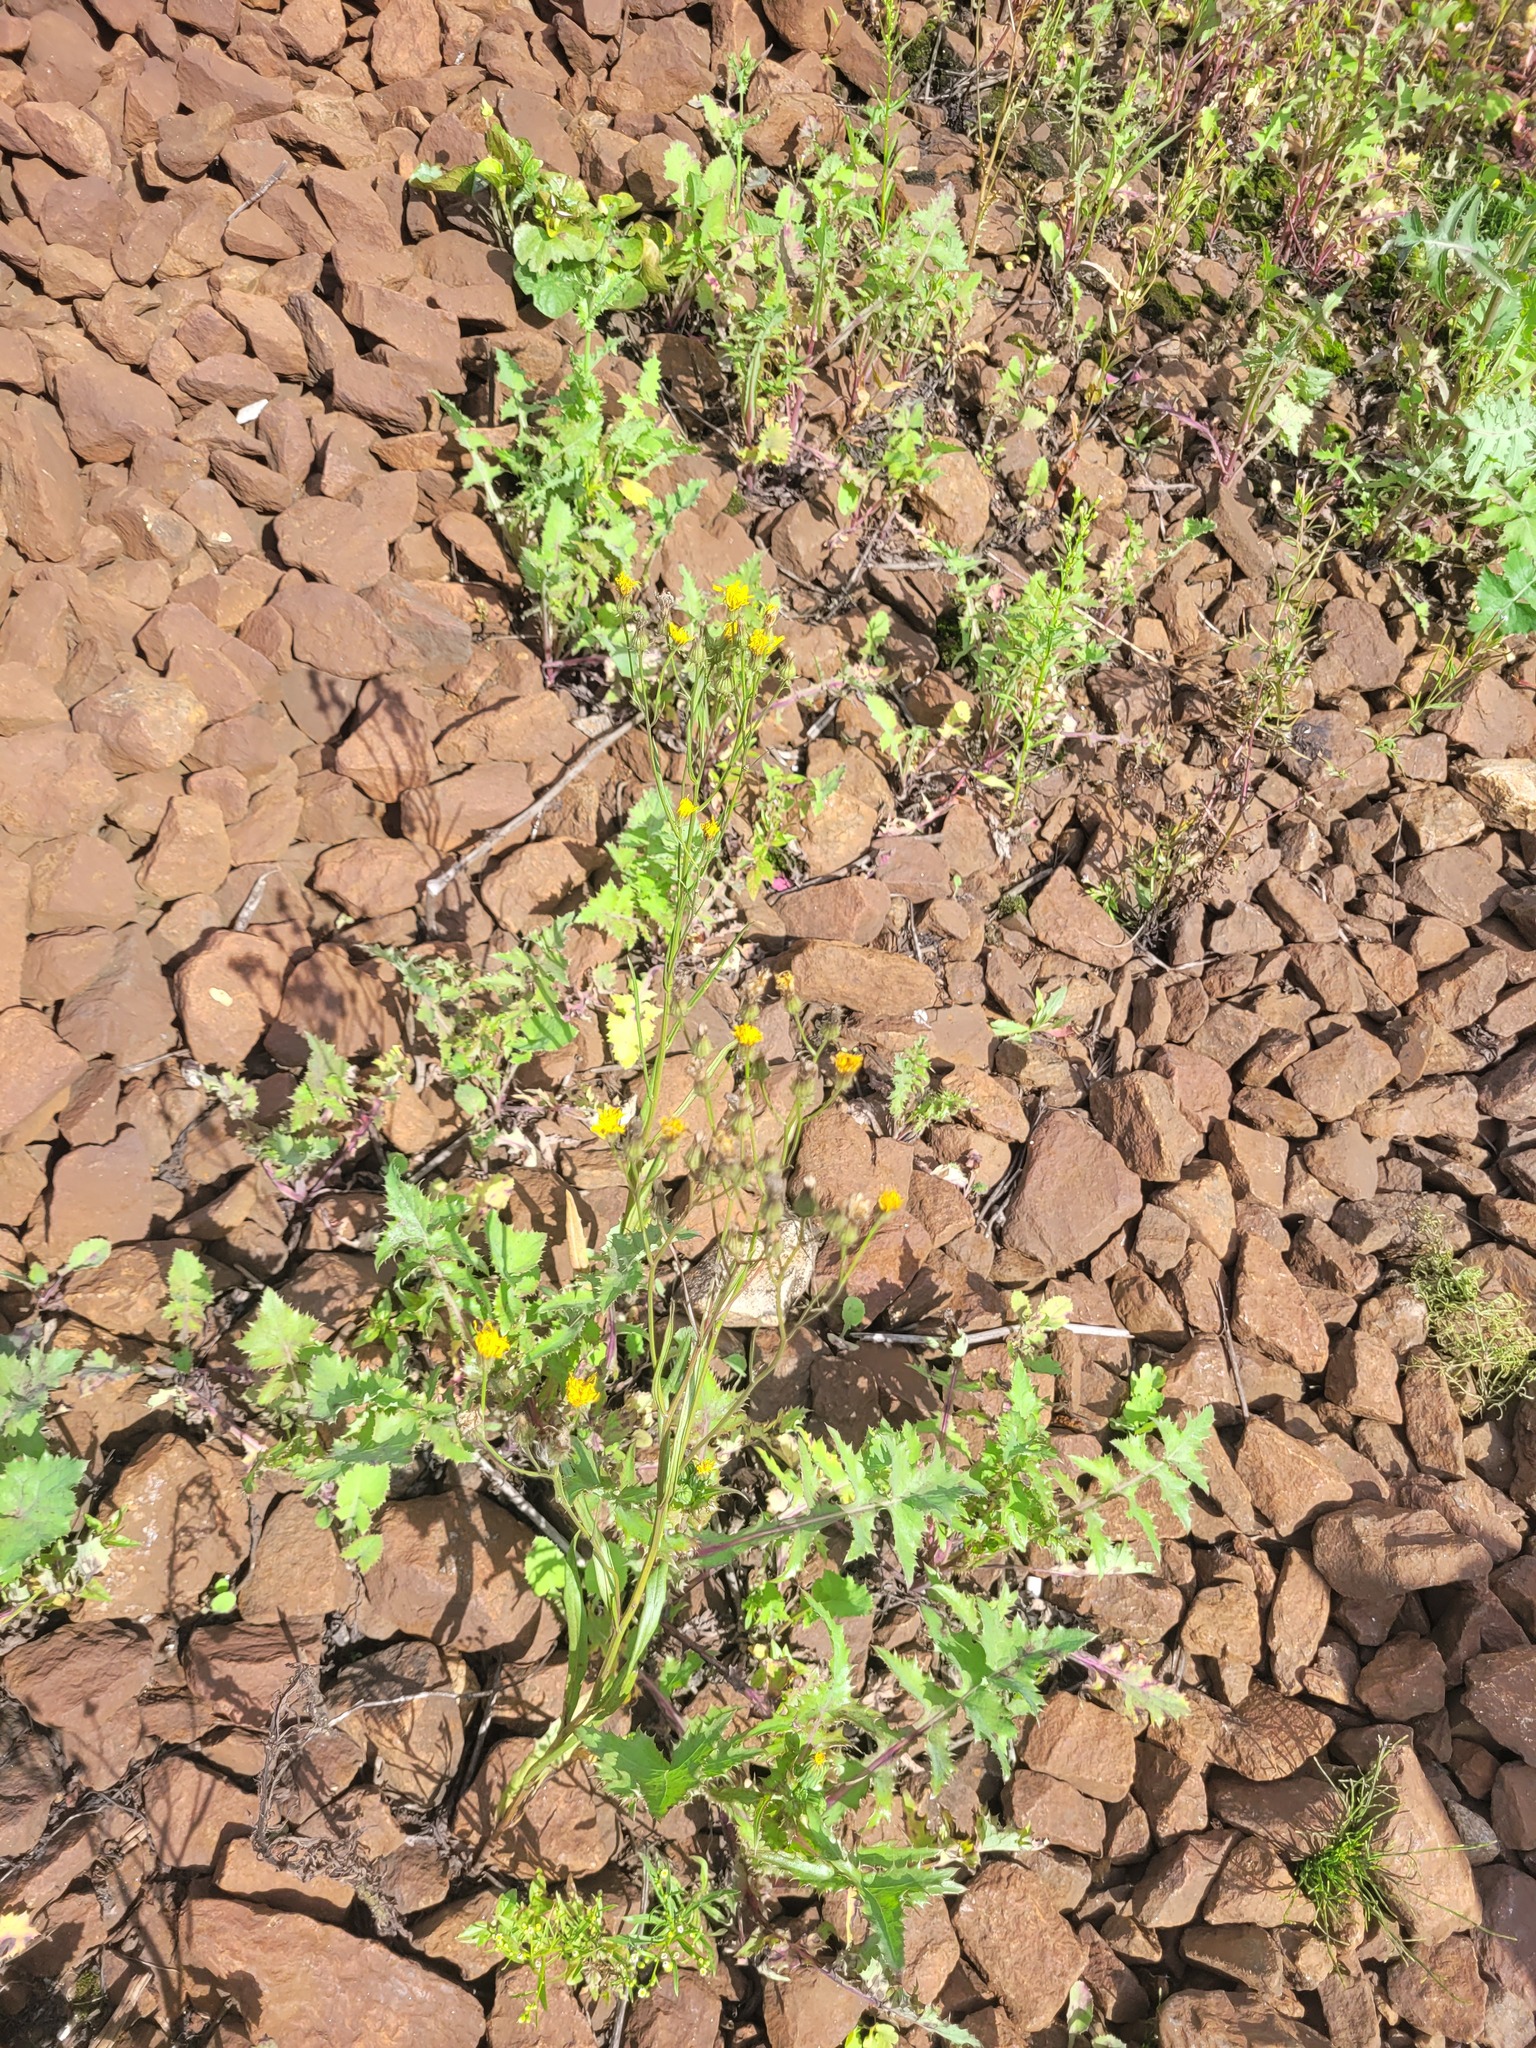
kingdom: Plantae
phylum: Tracheophyta
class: Magnoliopsida
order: Asterales
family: Asteraceae
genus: Crepis
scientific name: Crepis tectorum
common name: Narrow-leaved hawk's-beard
